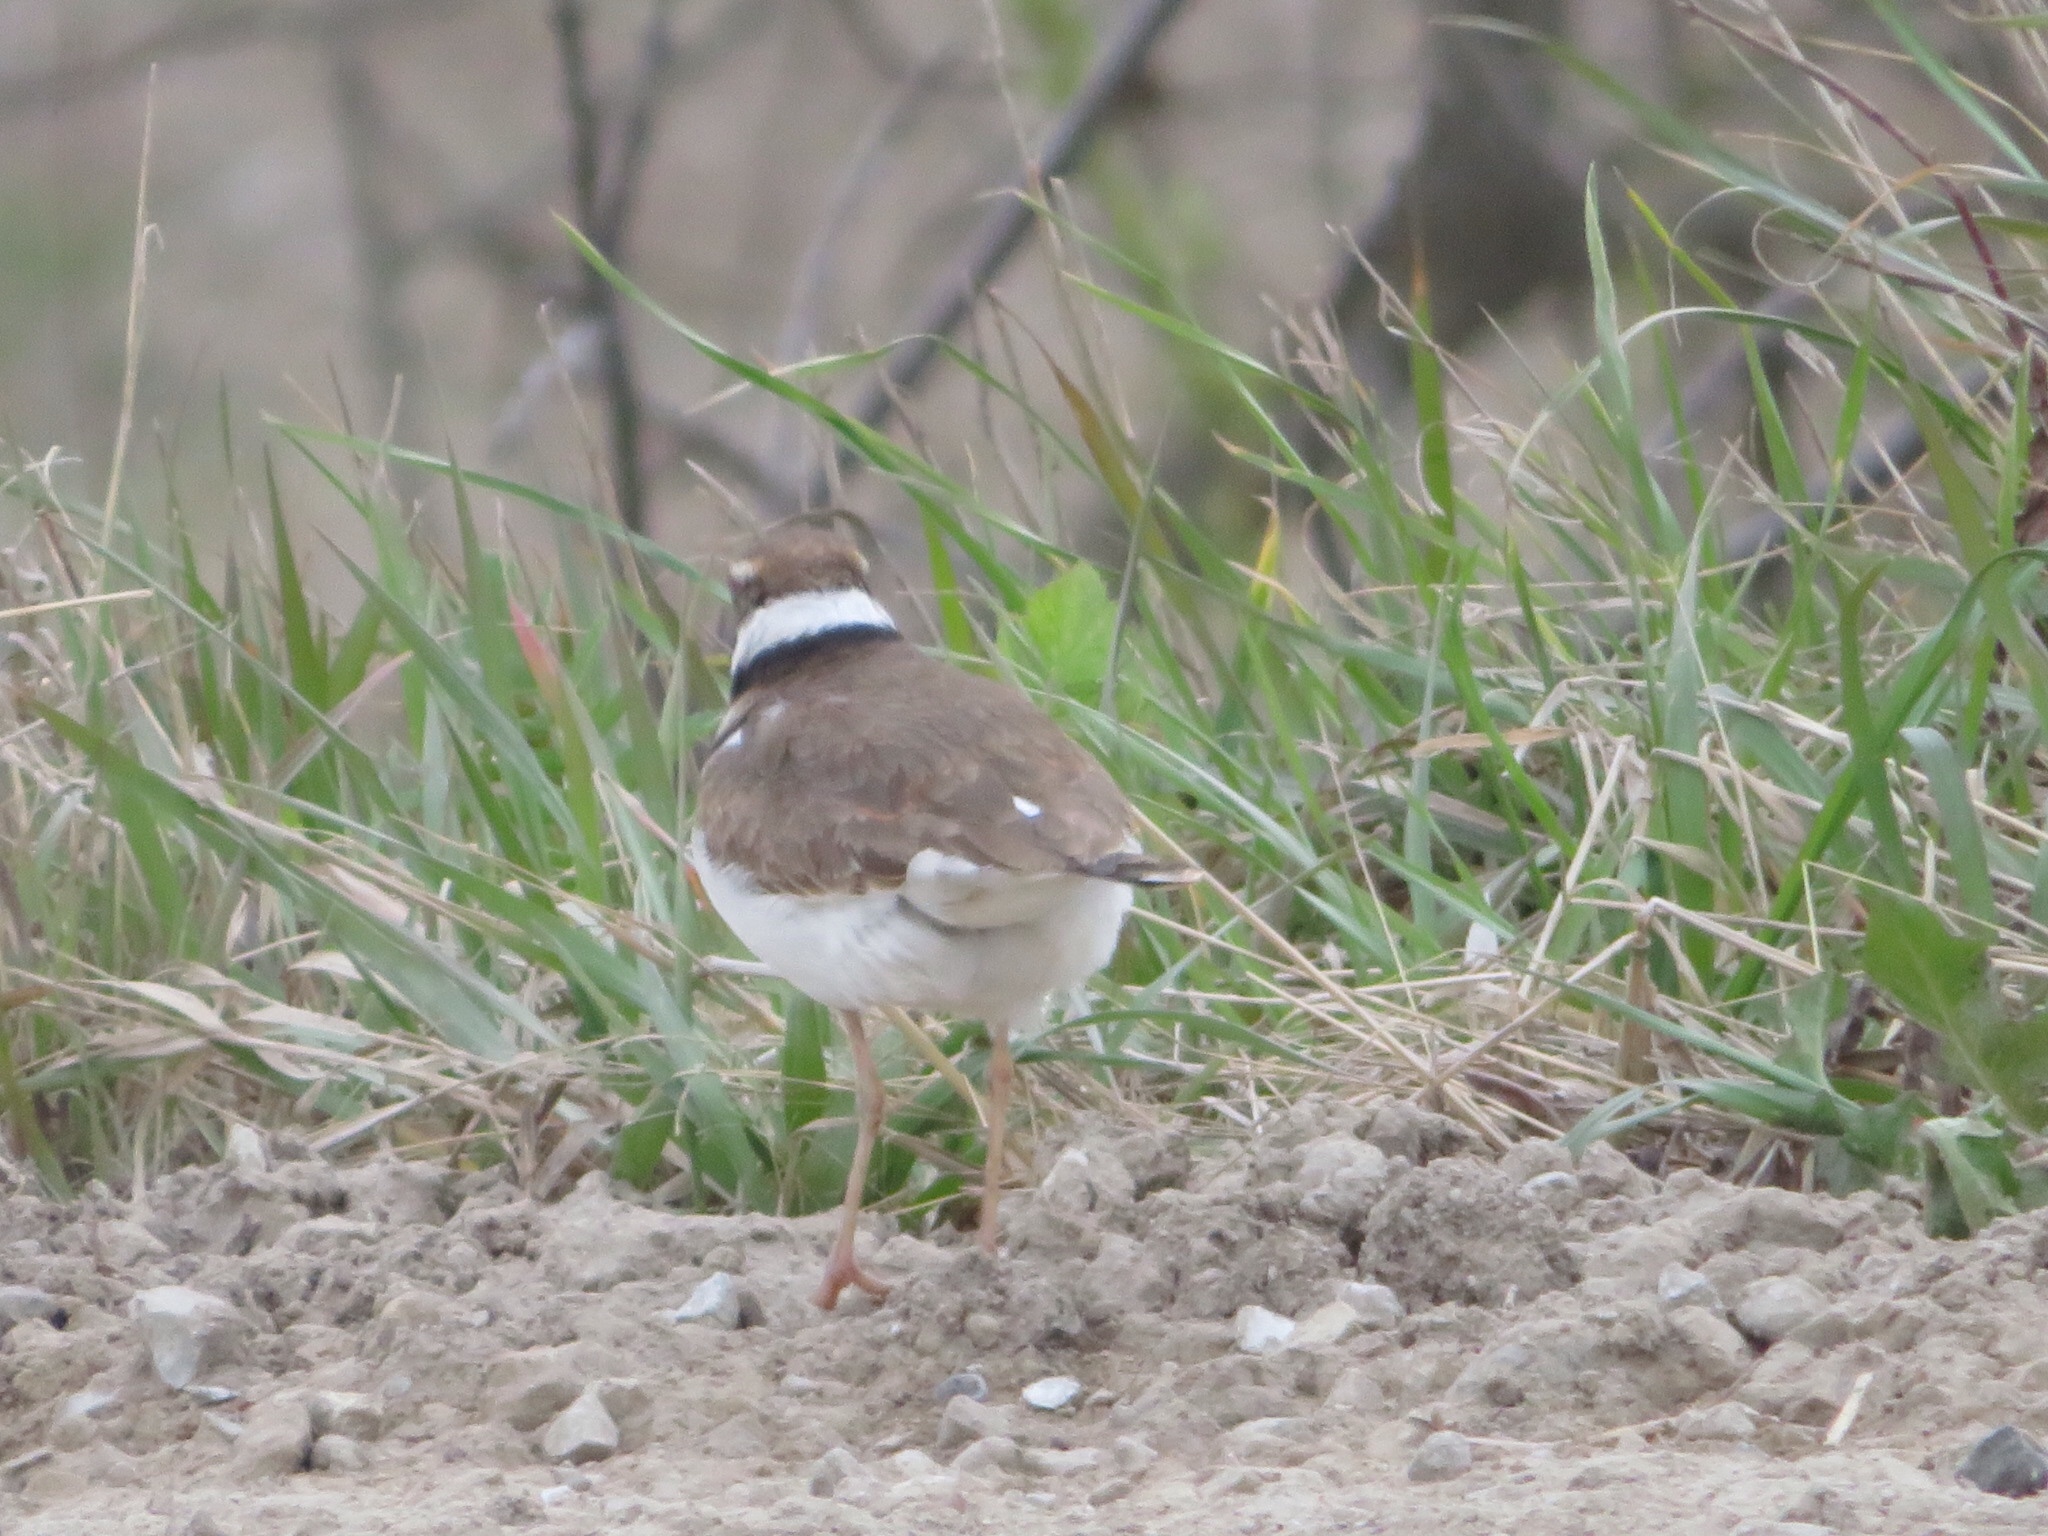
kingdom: Animalia
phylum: Chordata
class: Aves
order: Charadriiformes
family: Charadriidae
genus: Charadrius
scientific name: Charadrius vociferus
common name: Killdeer
